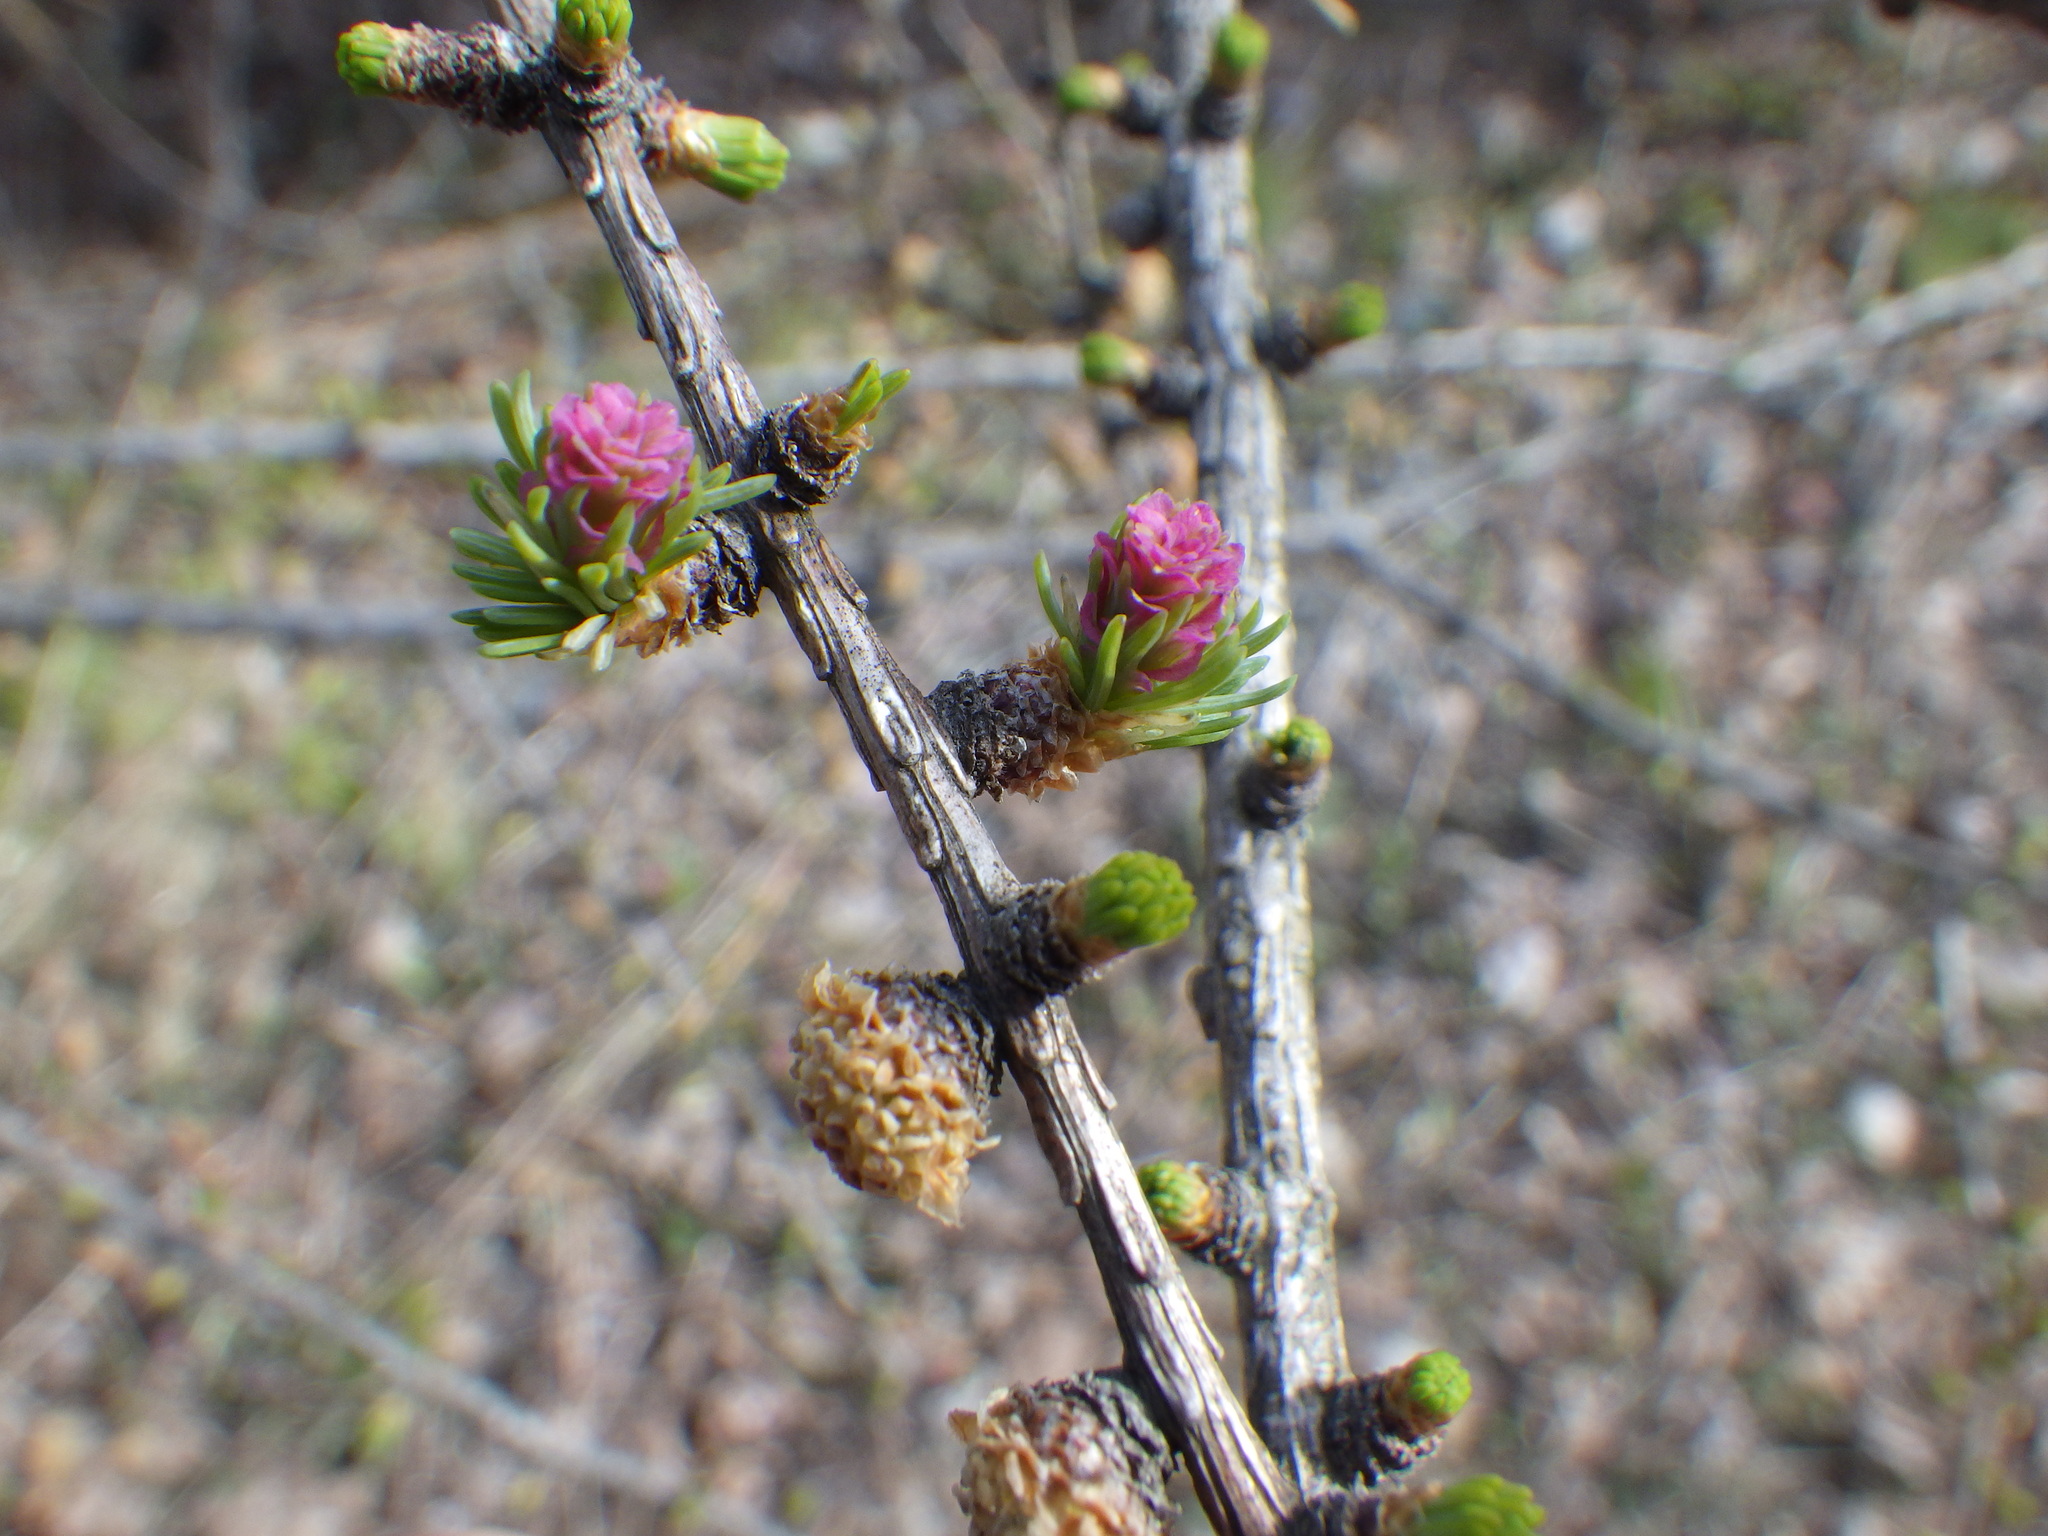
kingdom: Plantae
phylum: Tracheophyta
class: Pinopsida
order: Pinales
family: Pinaceae
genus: Larix
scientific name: Larix laricina
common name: American larch
